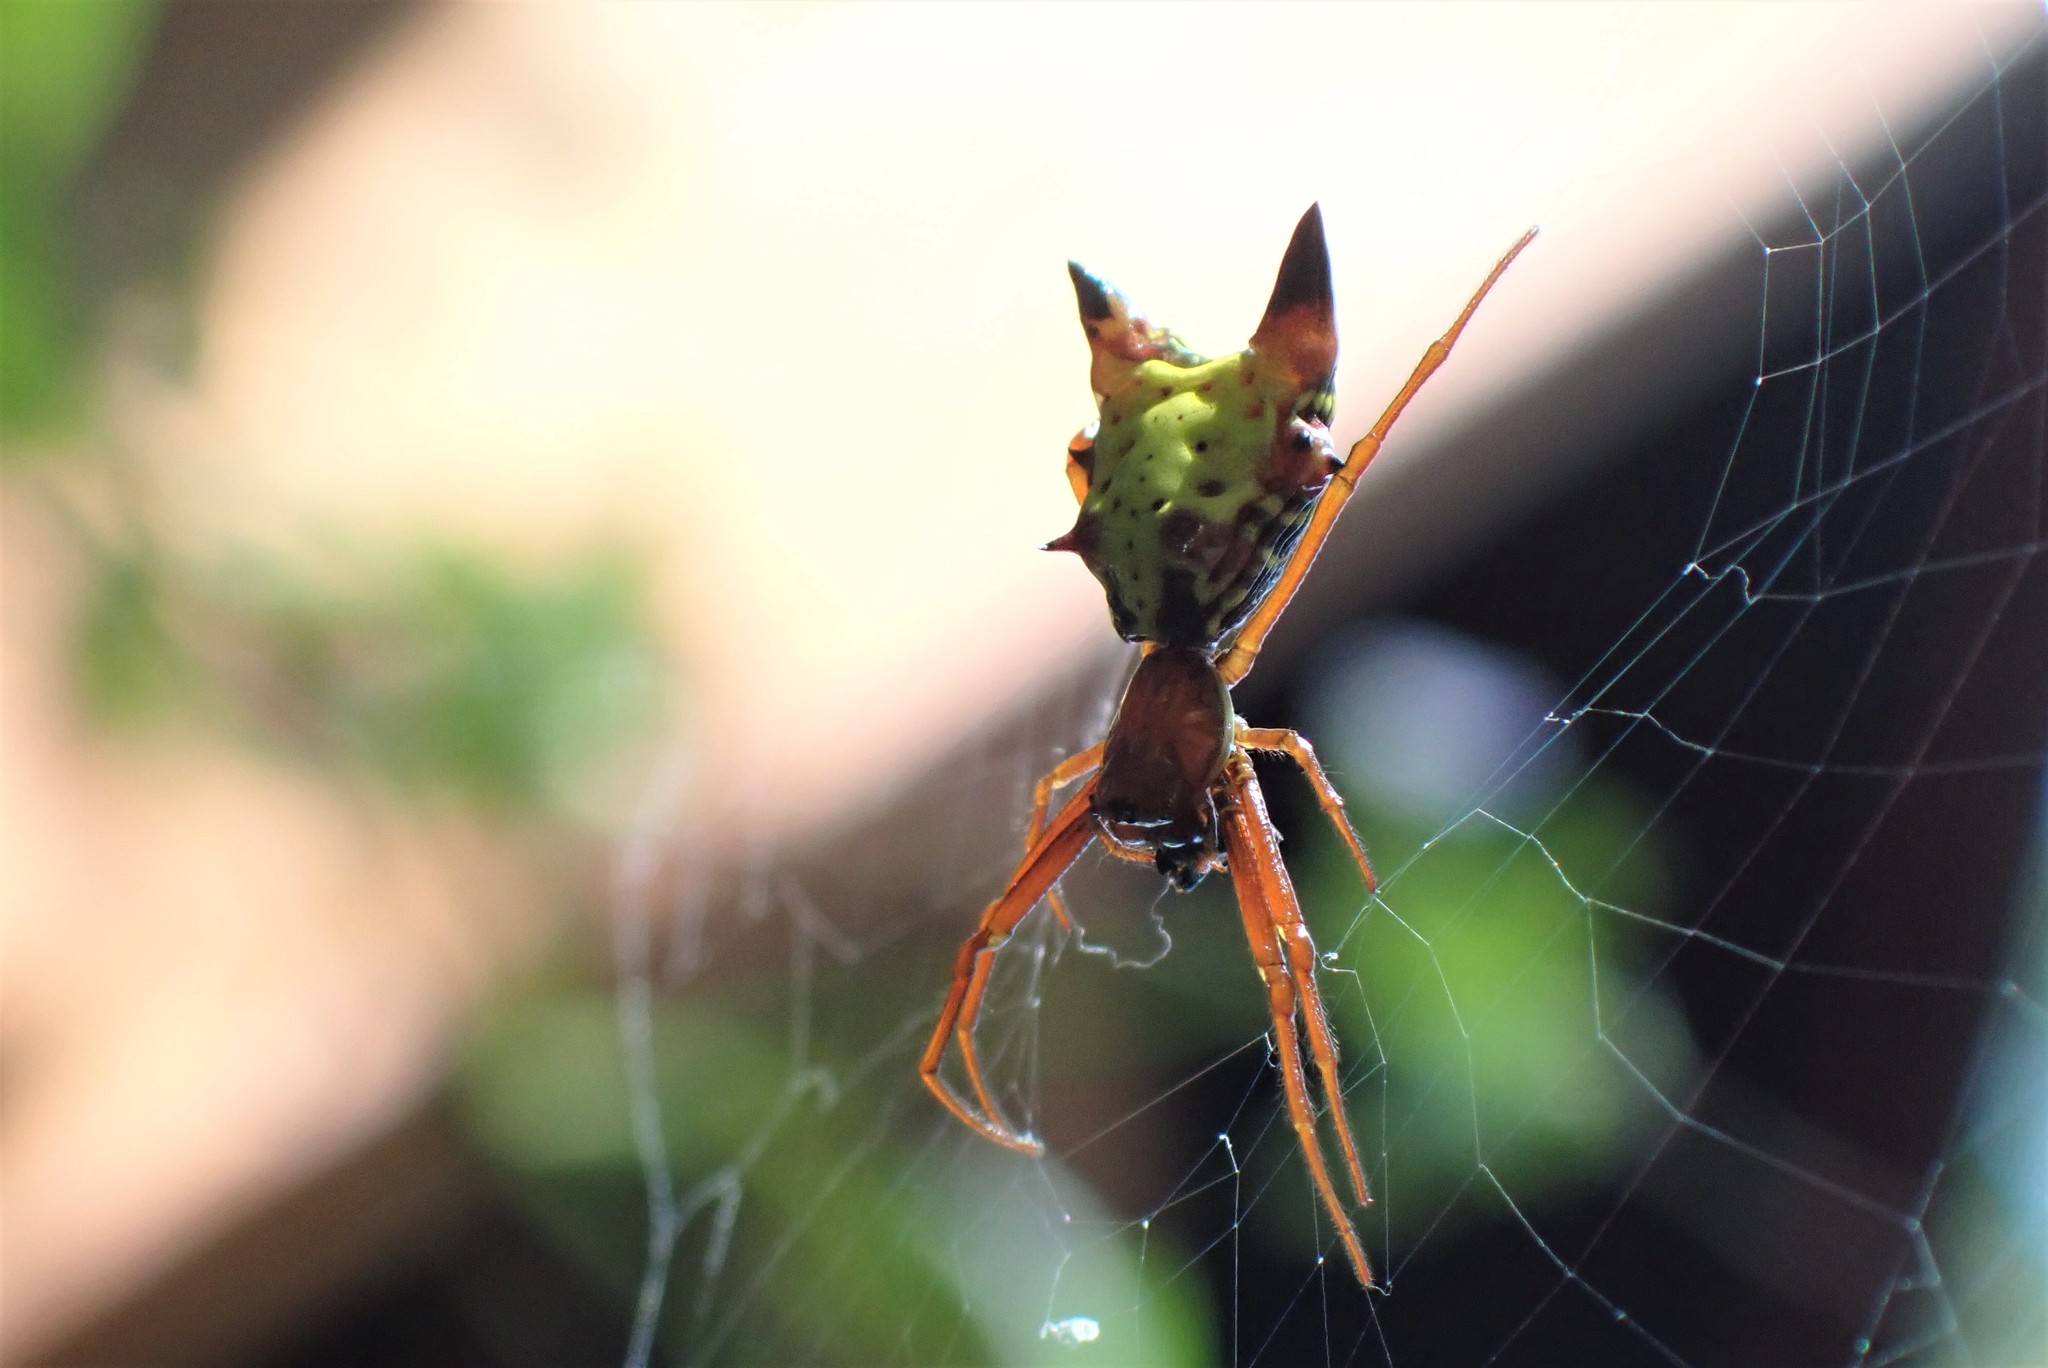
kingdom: Animalia
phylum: Arthropoda
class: Arachnida
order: Araneae
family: Araneidae
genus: Micrathena
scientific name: Micrathena sagittata
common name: Orb weavers
